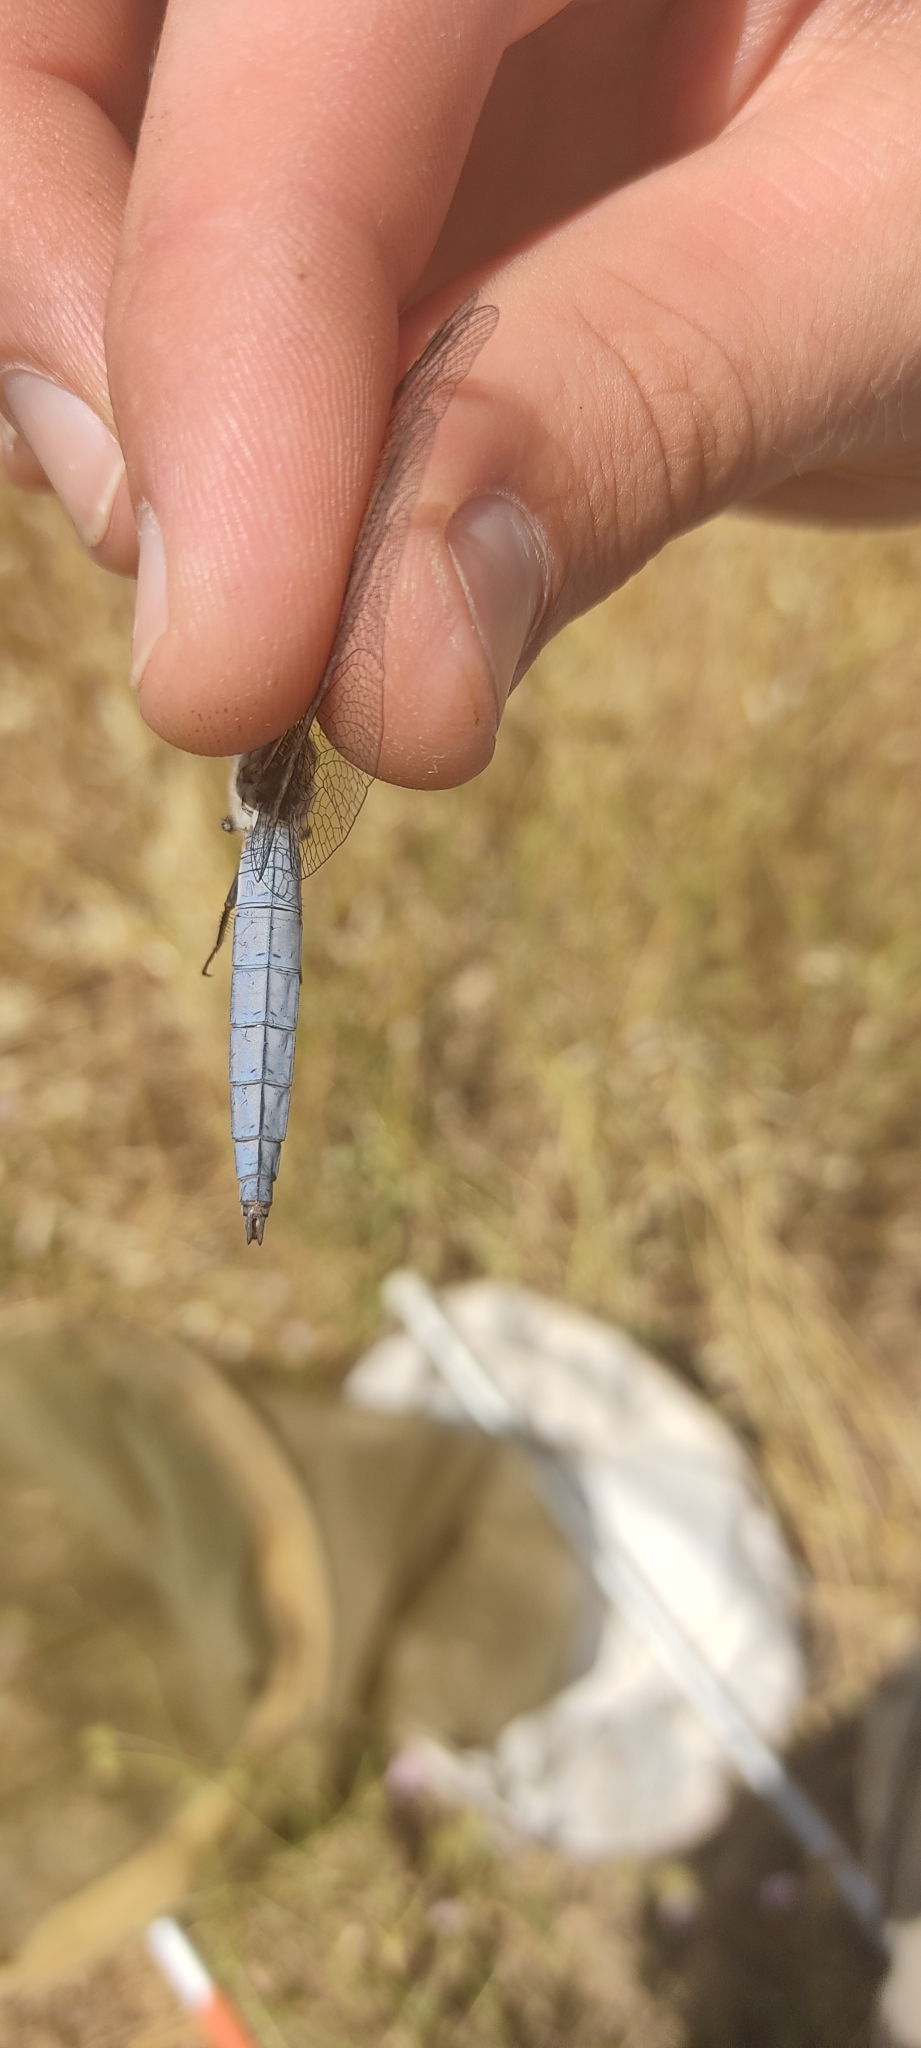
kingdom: Animalia
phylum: Arthropoda
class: Insecta
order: Odonata
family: Libellulidae
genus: Orthetrum
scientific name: Orthetrum brunneum
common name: Southern skimmer
